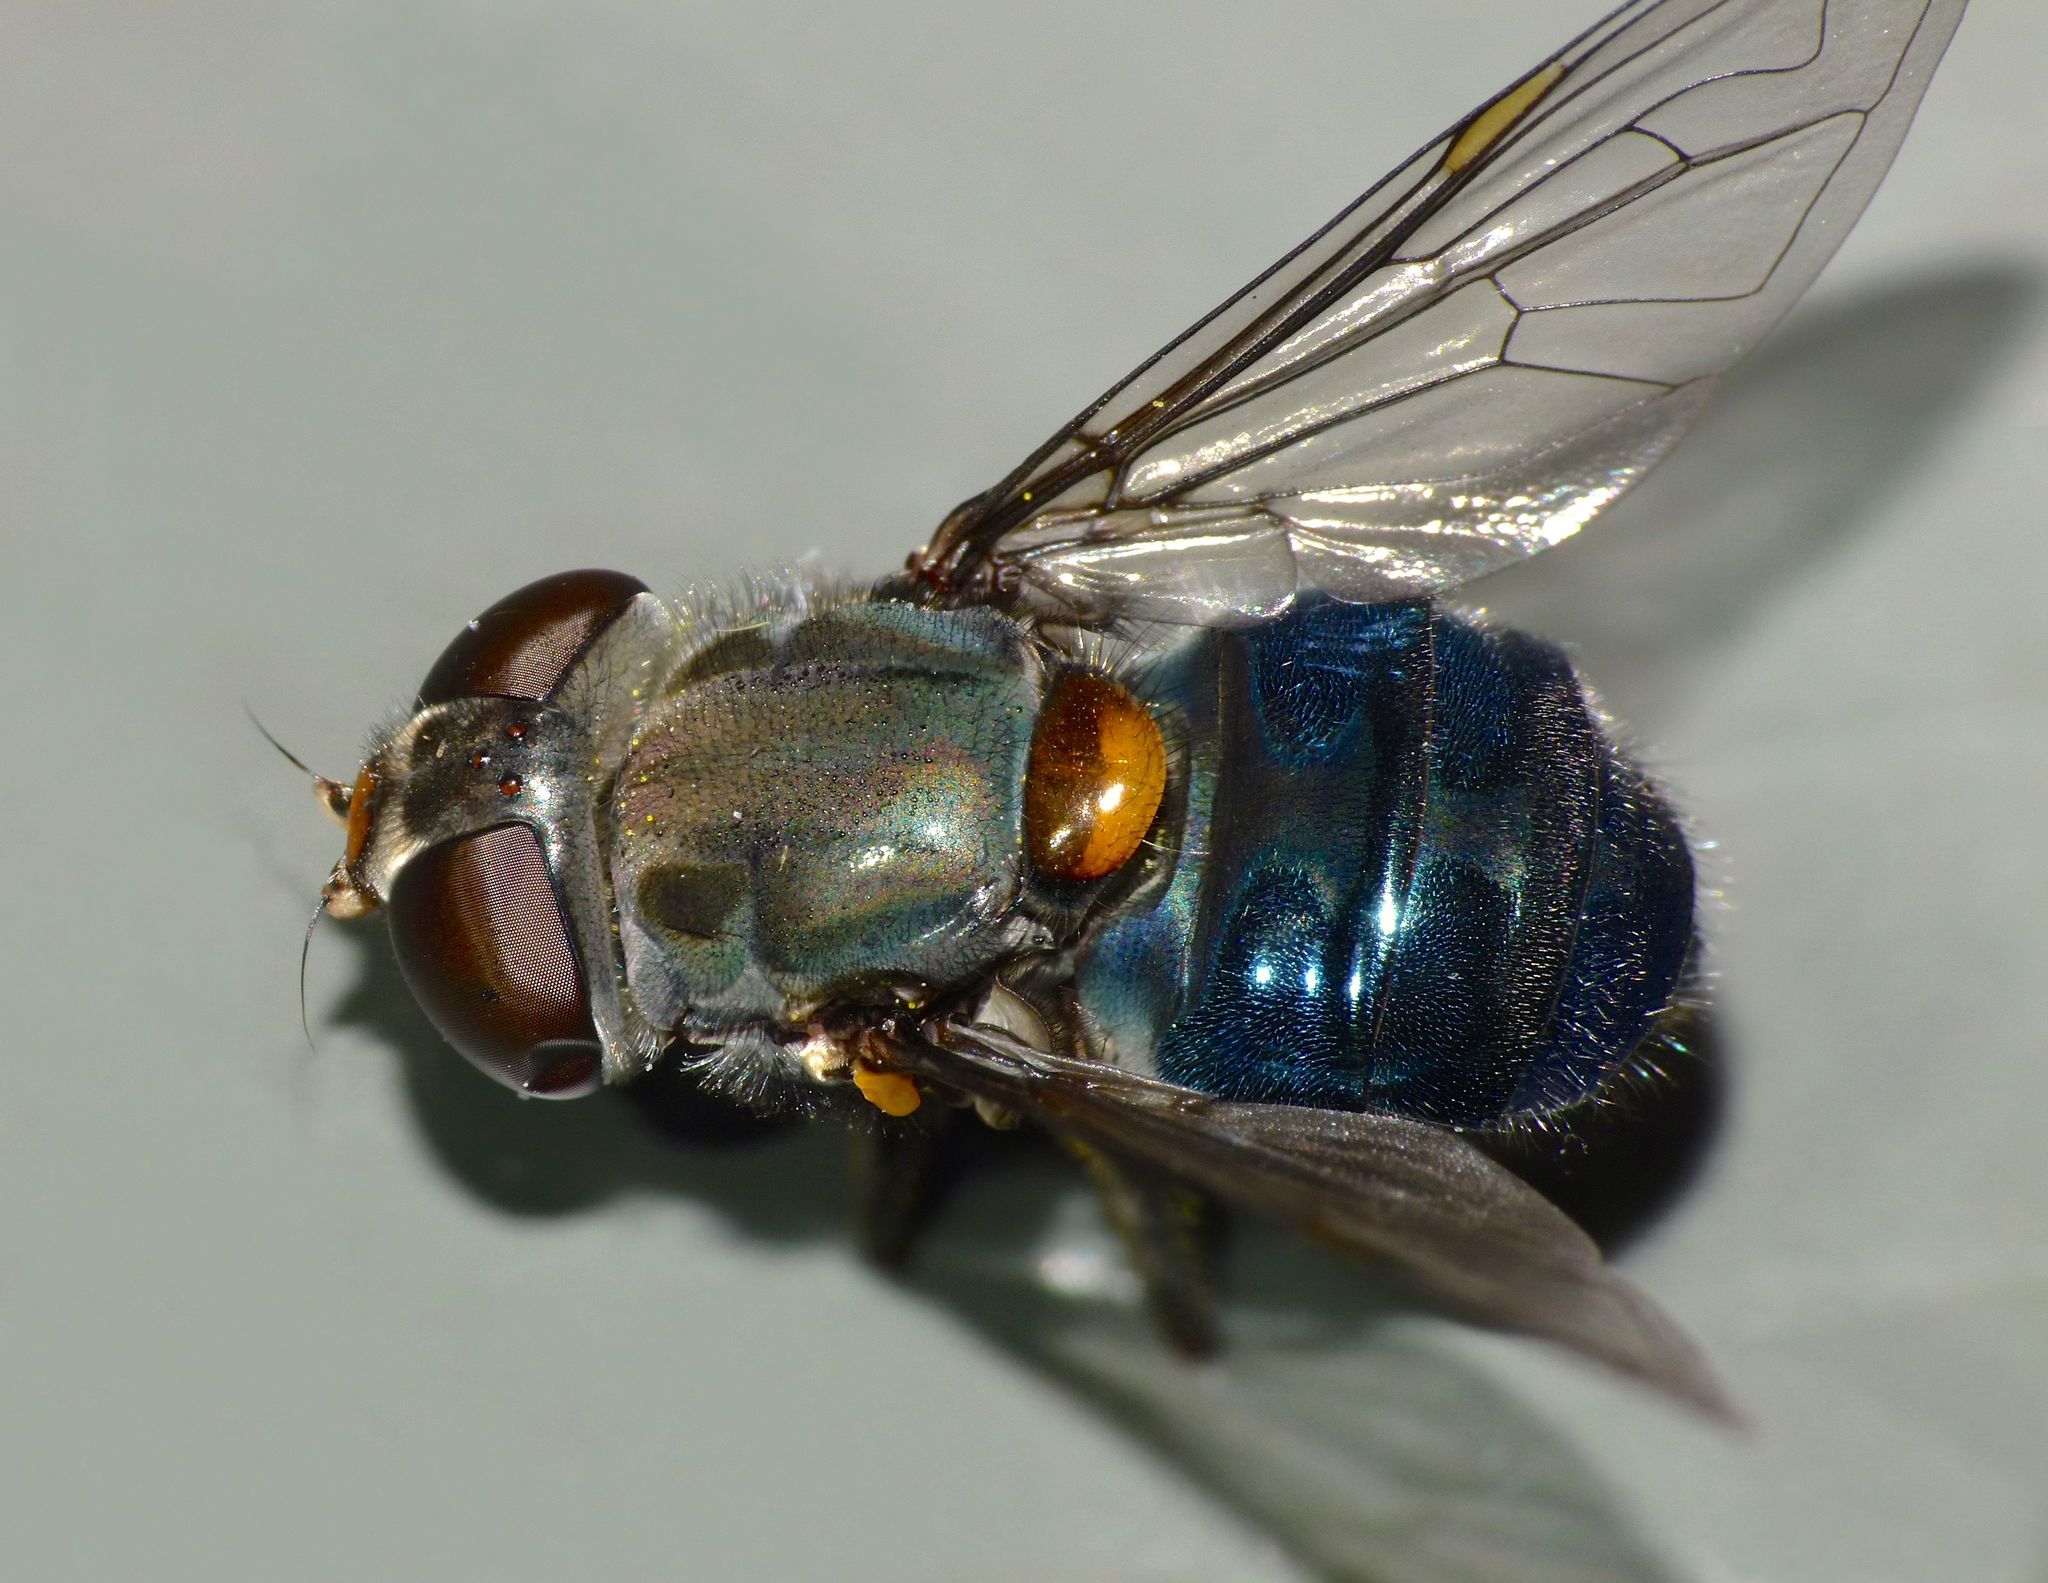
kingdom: Animalia
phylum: Arthropoda
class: Insecta
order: Diptera
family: Syrphidae
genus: Helophilus
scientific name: Helophilus hochstetteri
